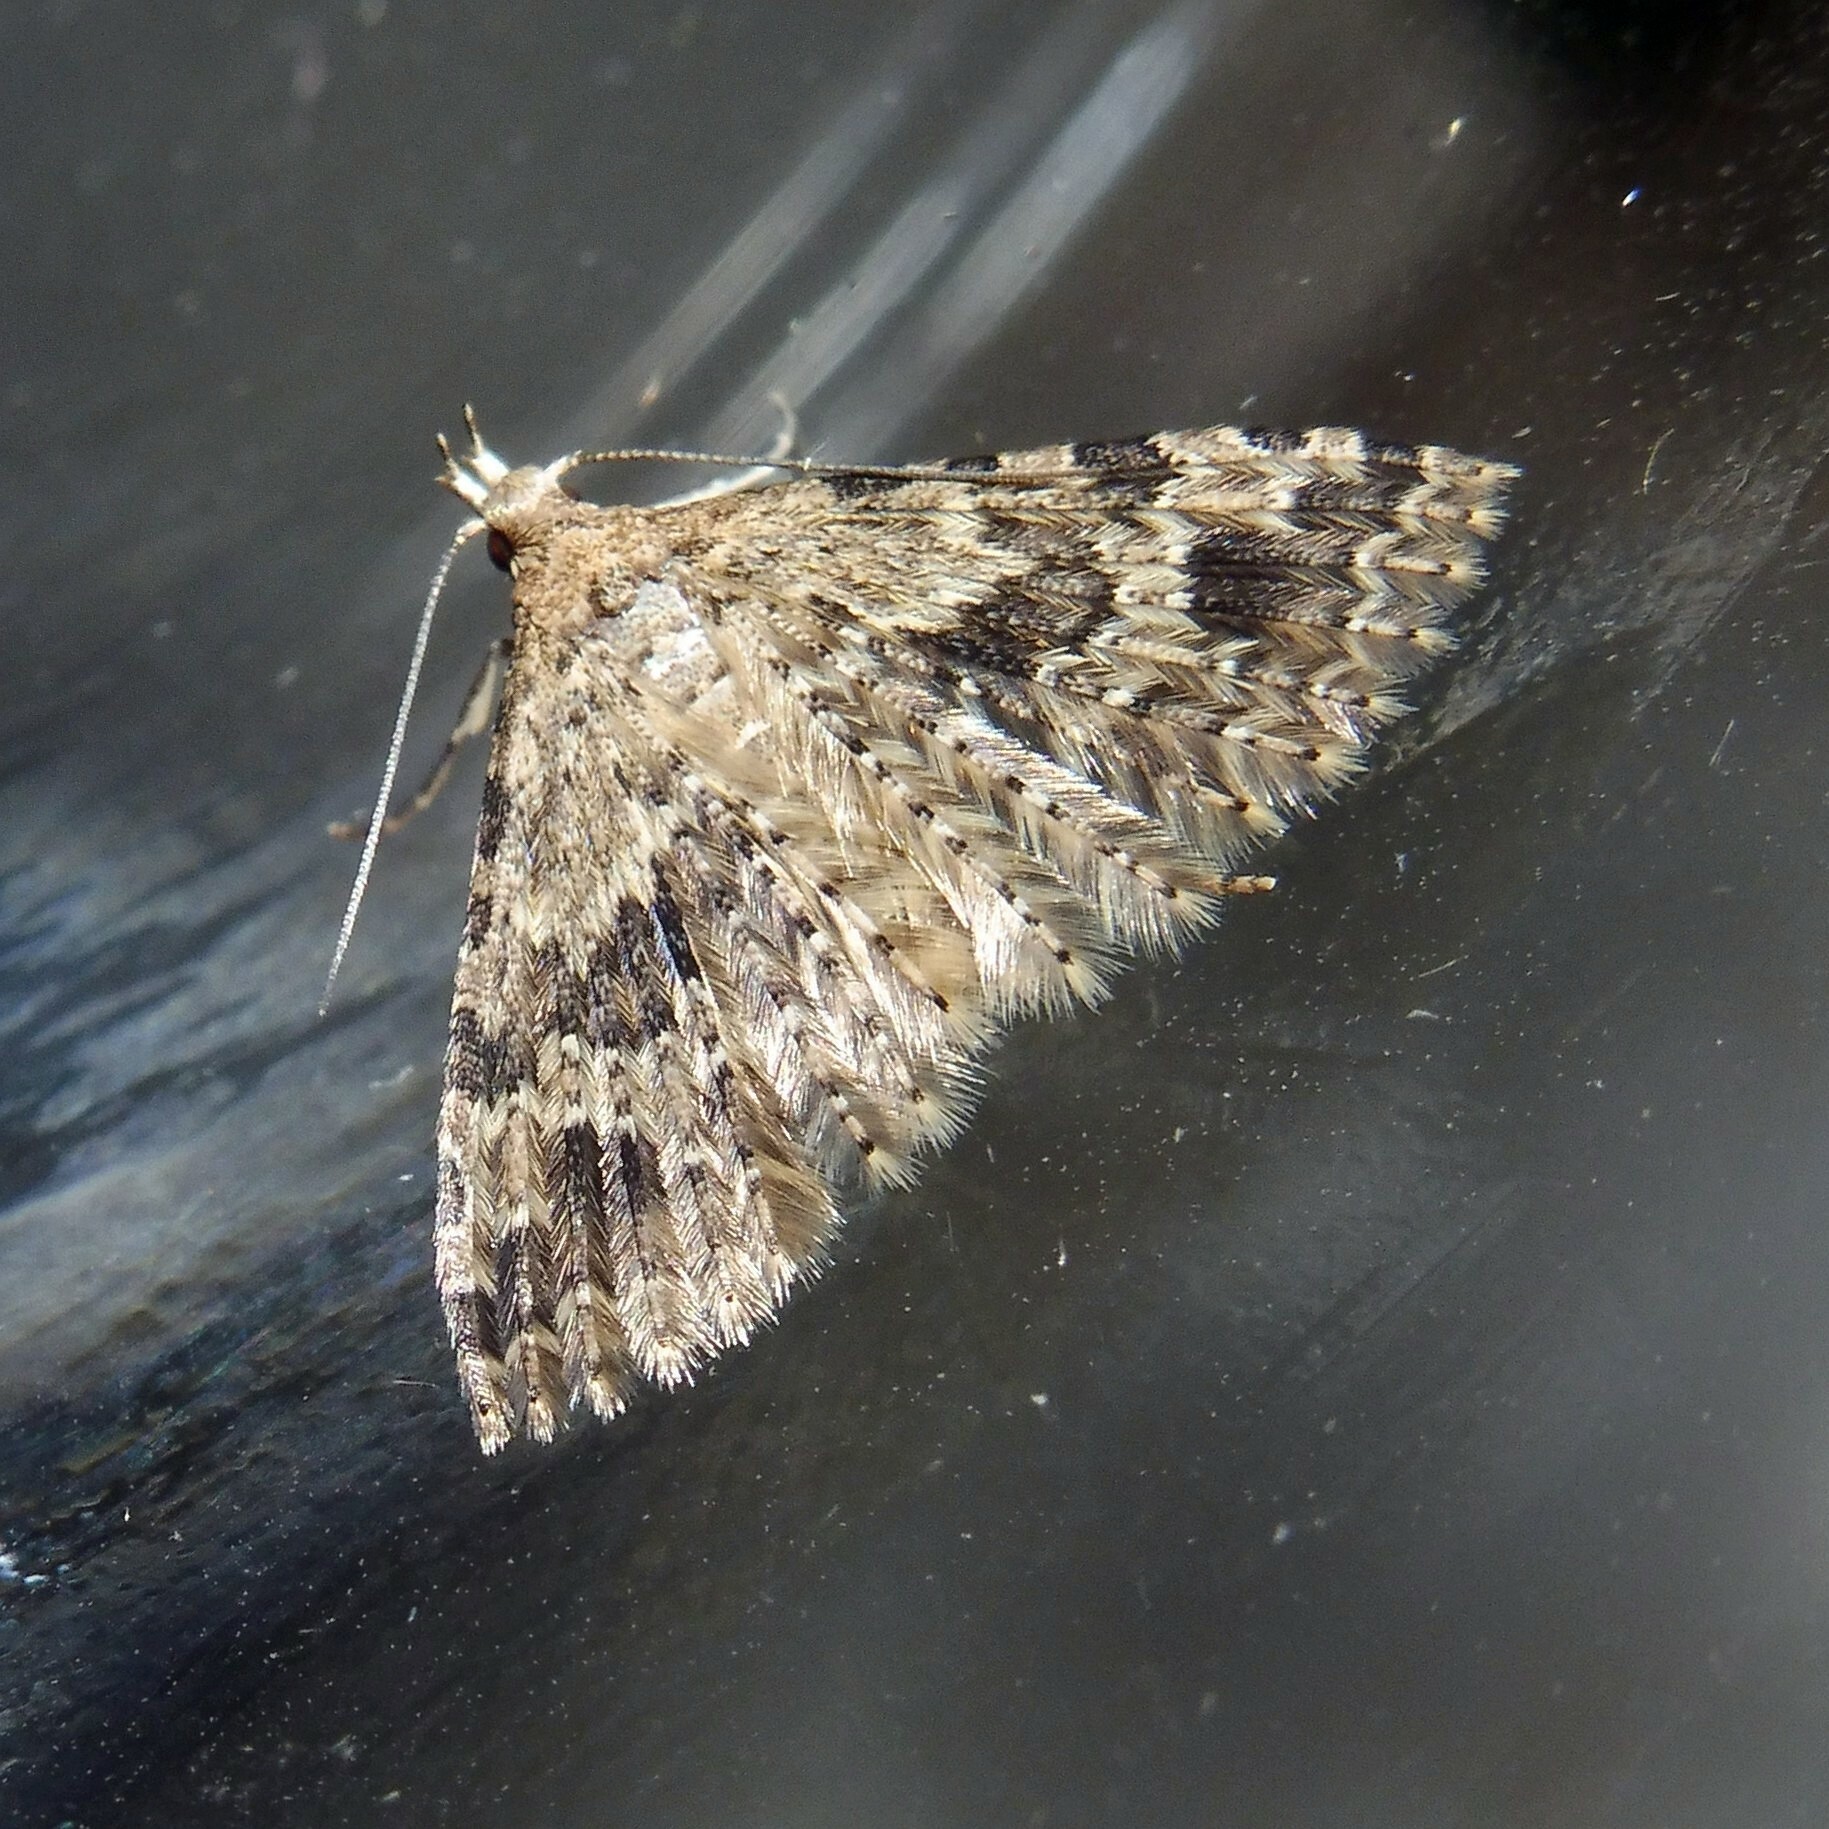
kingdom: Animalia
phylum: Arthropoda
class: Insecta
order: Lepidoptera
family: Alucitidae
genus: Alucita
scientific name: Alucita hexadactyla
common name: Twenty-plume moth
